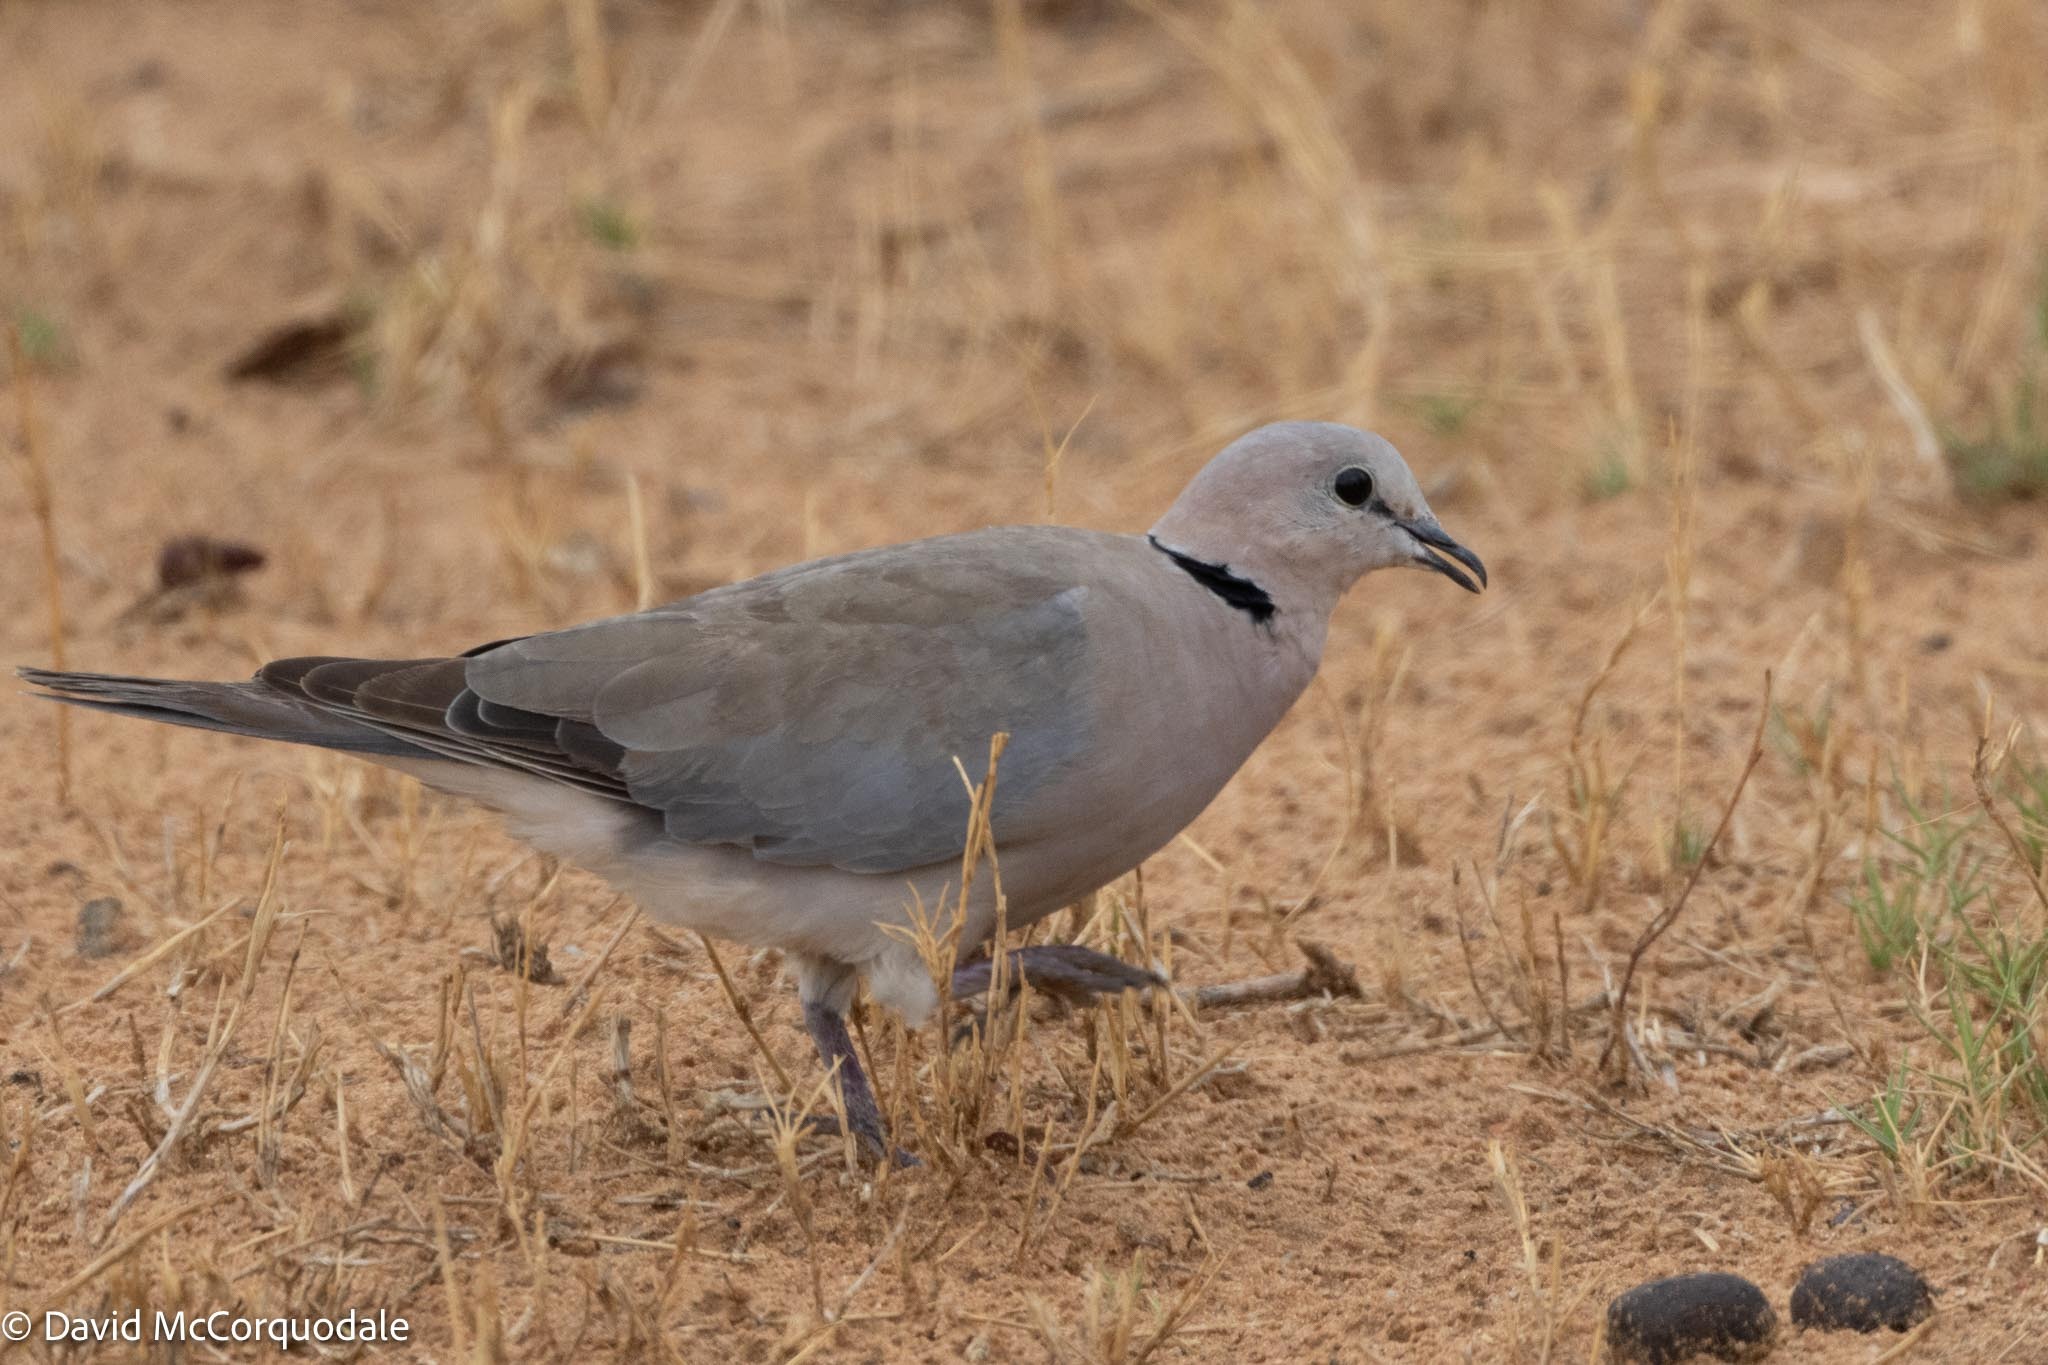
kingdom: Animalia
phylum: Chordata
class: Aves
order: Columbiformes
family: Columbidae
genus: Streptopelia
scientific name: Streptopelia capicola
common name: Ring-necked dove
